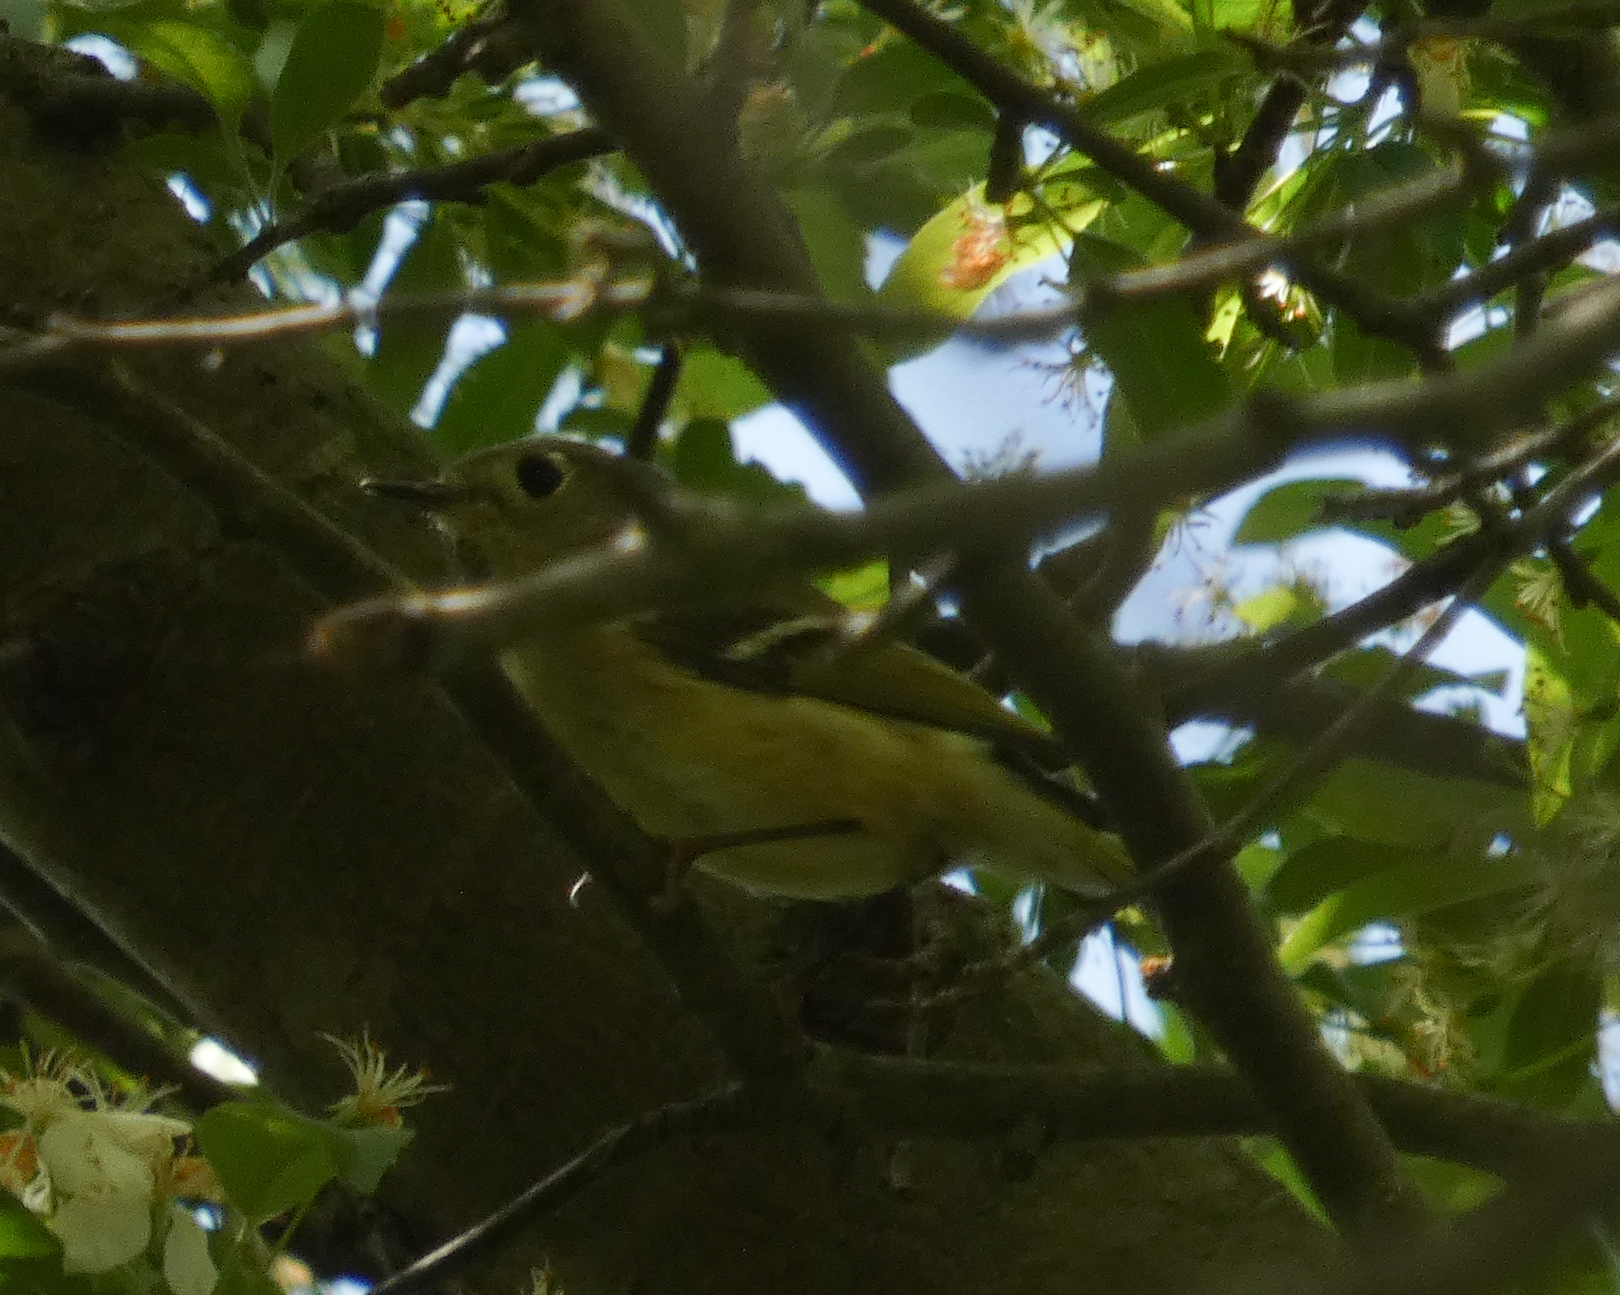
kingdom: Animalia
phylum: Chordata
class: Aves
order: Passeriformes
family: Regulidae
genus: Regulus
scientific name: Regulus calendula
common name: Ruby-crowned kinglet
